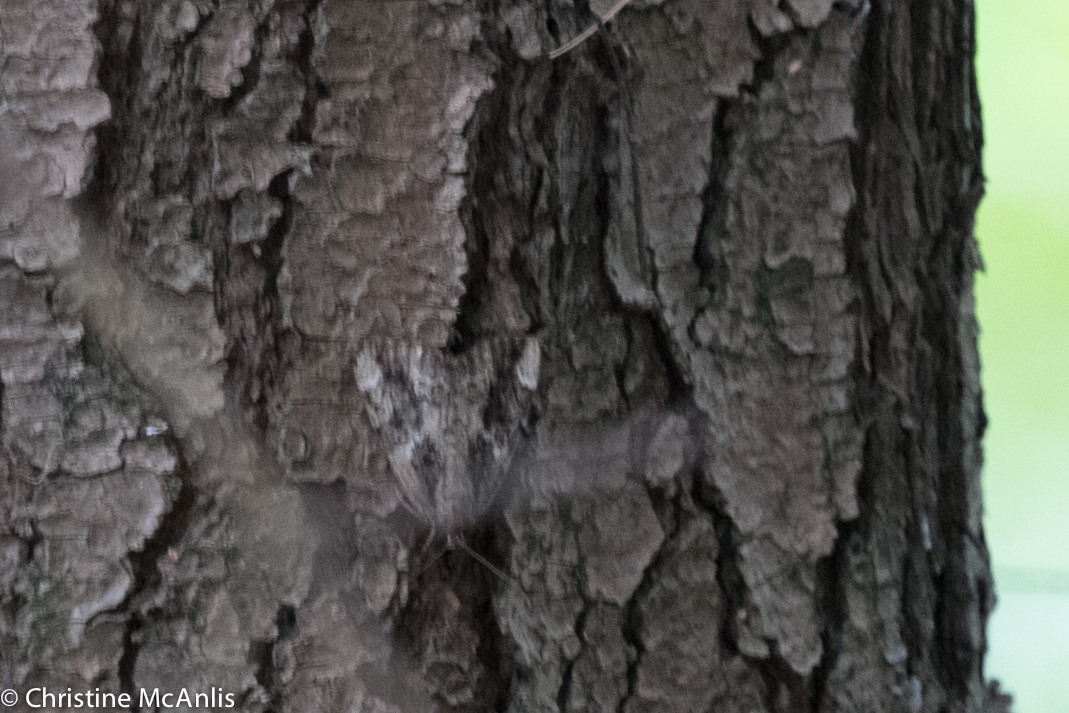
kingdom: Animalia
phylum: Arthropoda
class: Insecta
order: Lepidoptera
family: Erebidae
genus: Catocala
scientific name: Catocala innubens
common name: Betrothed underwing
